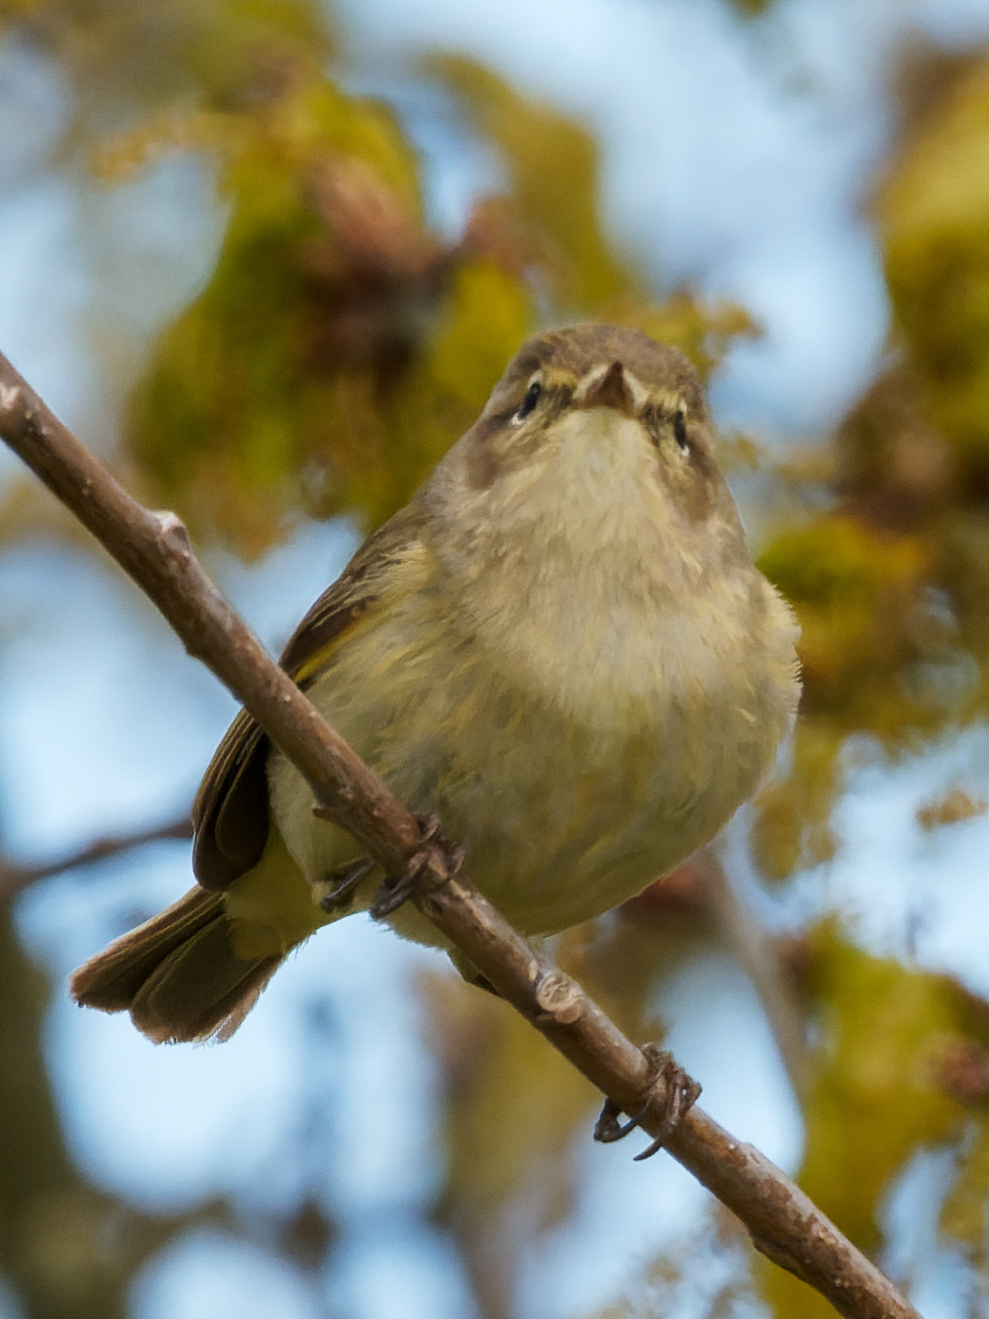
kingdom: Animalia
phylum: Chordata
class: Aves
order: Passeriformes
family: Phylloscopidae
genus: Phylloscopus
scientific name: Phylloscopus collybita
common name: Common chiffchaff
